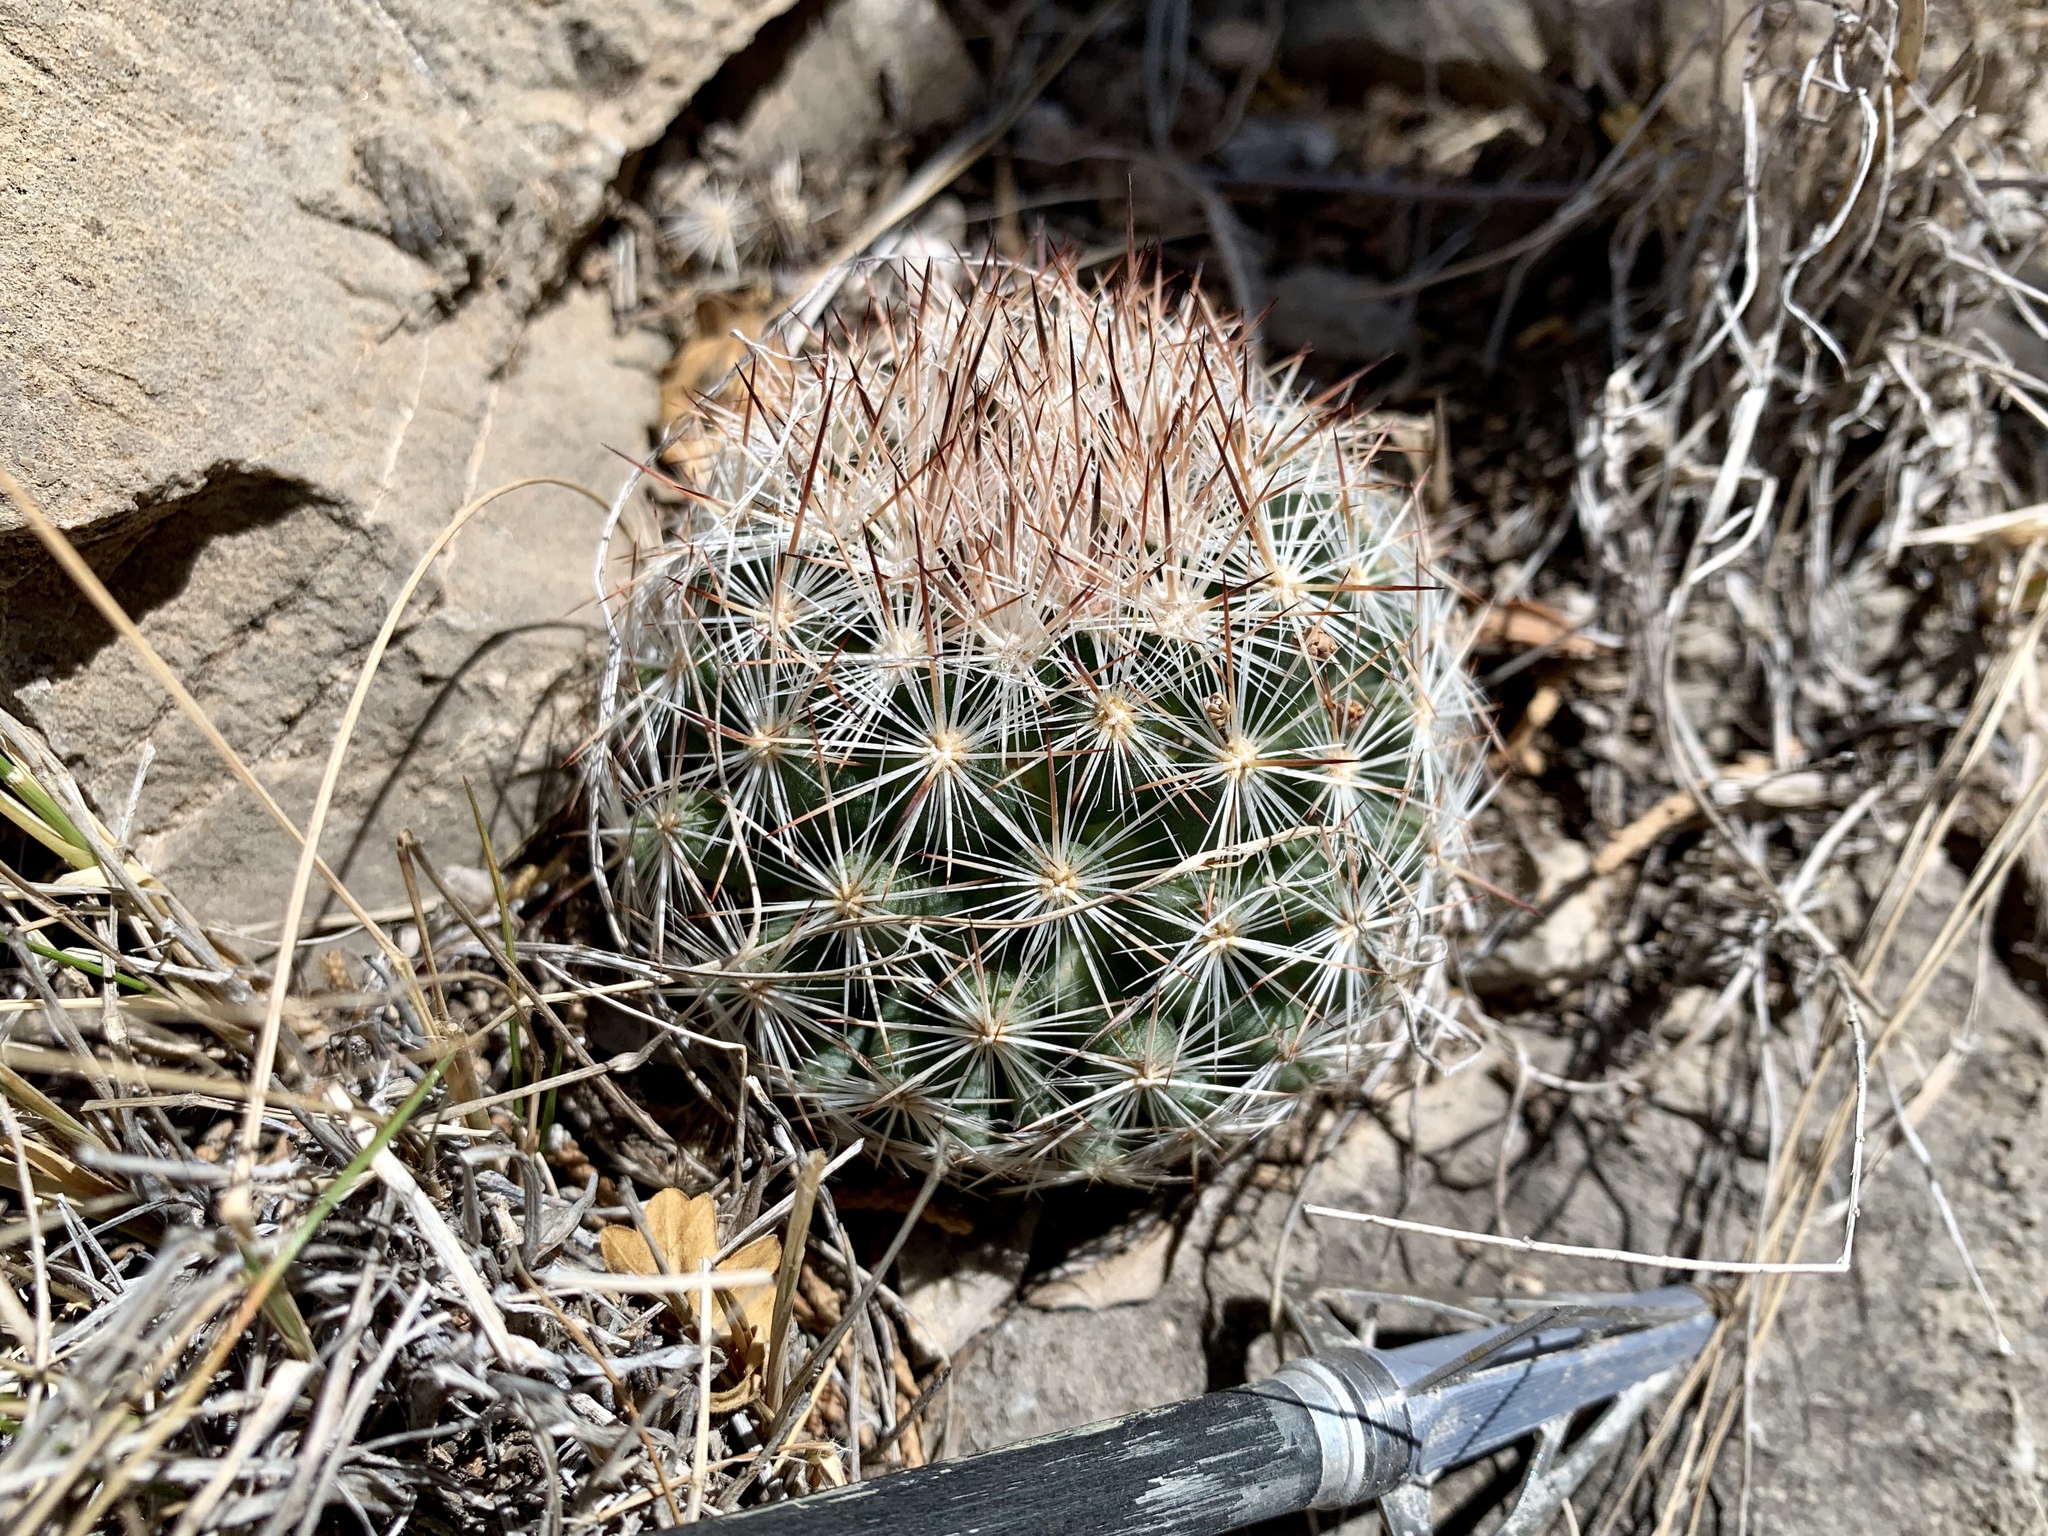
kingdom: Plantae
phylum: Tracheophyta
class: Magnoliopsida
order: Caryophyllales
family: Cactaceae
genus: Pelecyphora
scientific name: Pelecyphora vivipara
